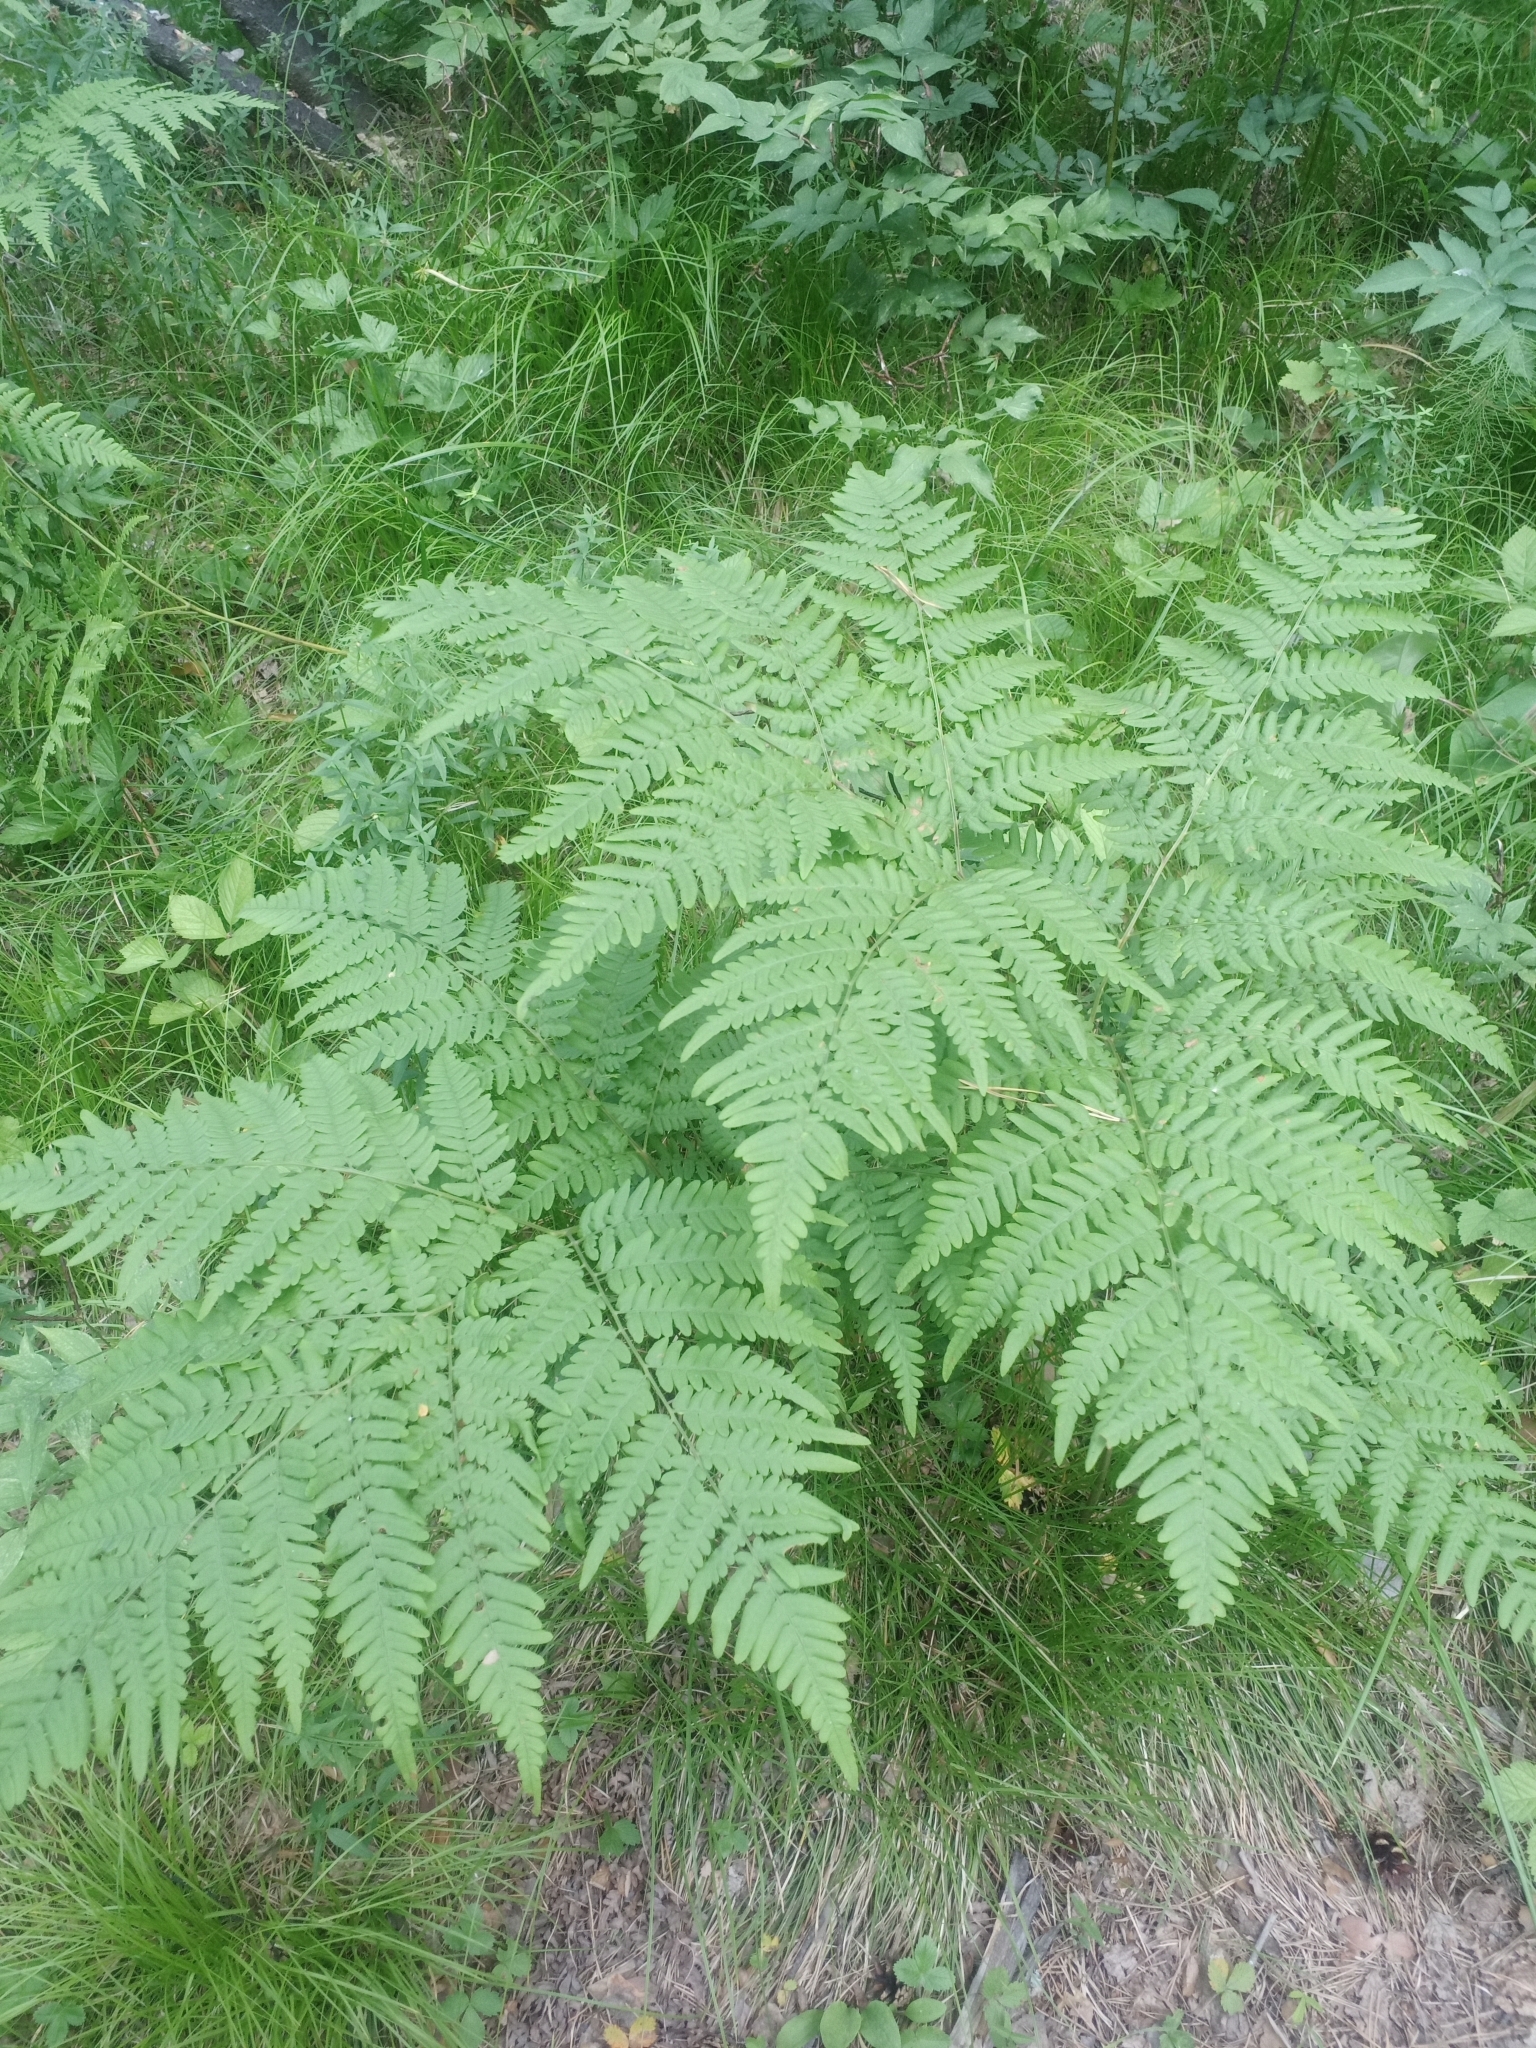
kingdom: Plantae
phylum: Tracheophyta
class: Polypodiopsida
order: Polypodiales
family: Dennstaedtiaceae
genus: Pteridium
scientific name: Pteridium aquilinum
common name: Bracken
